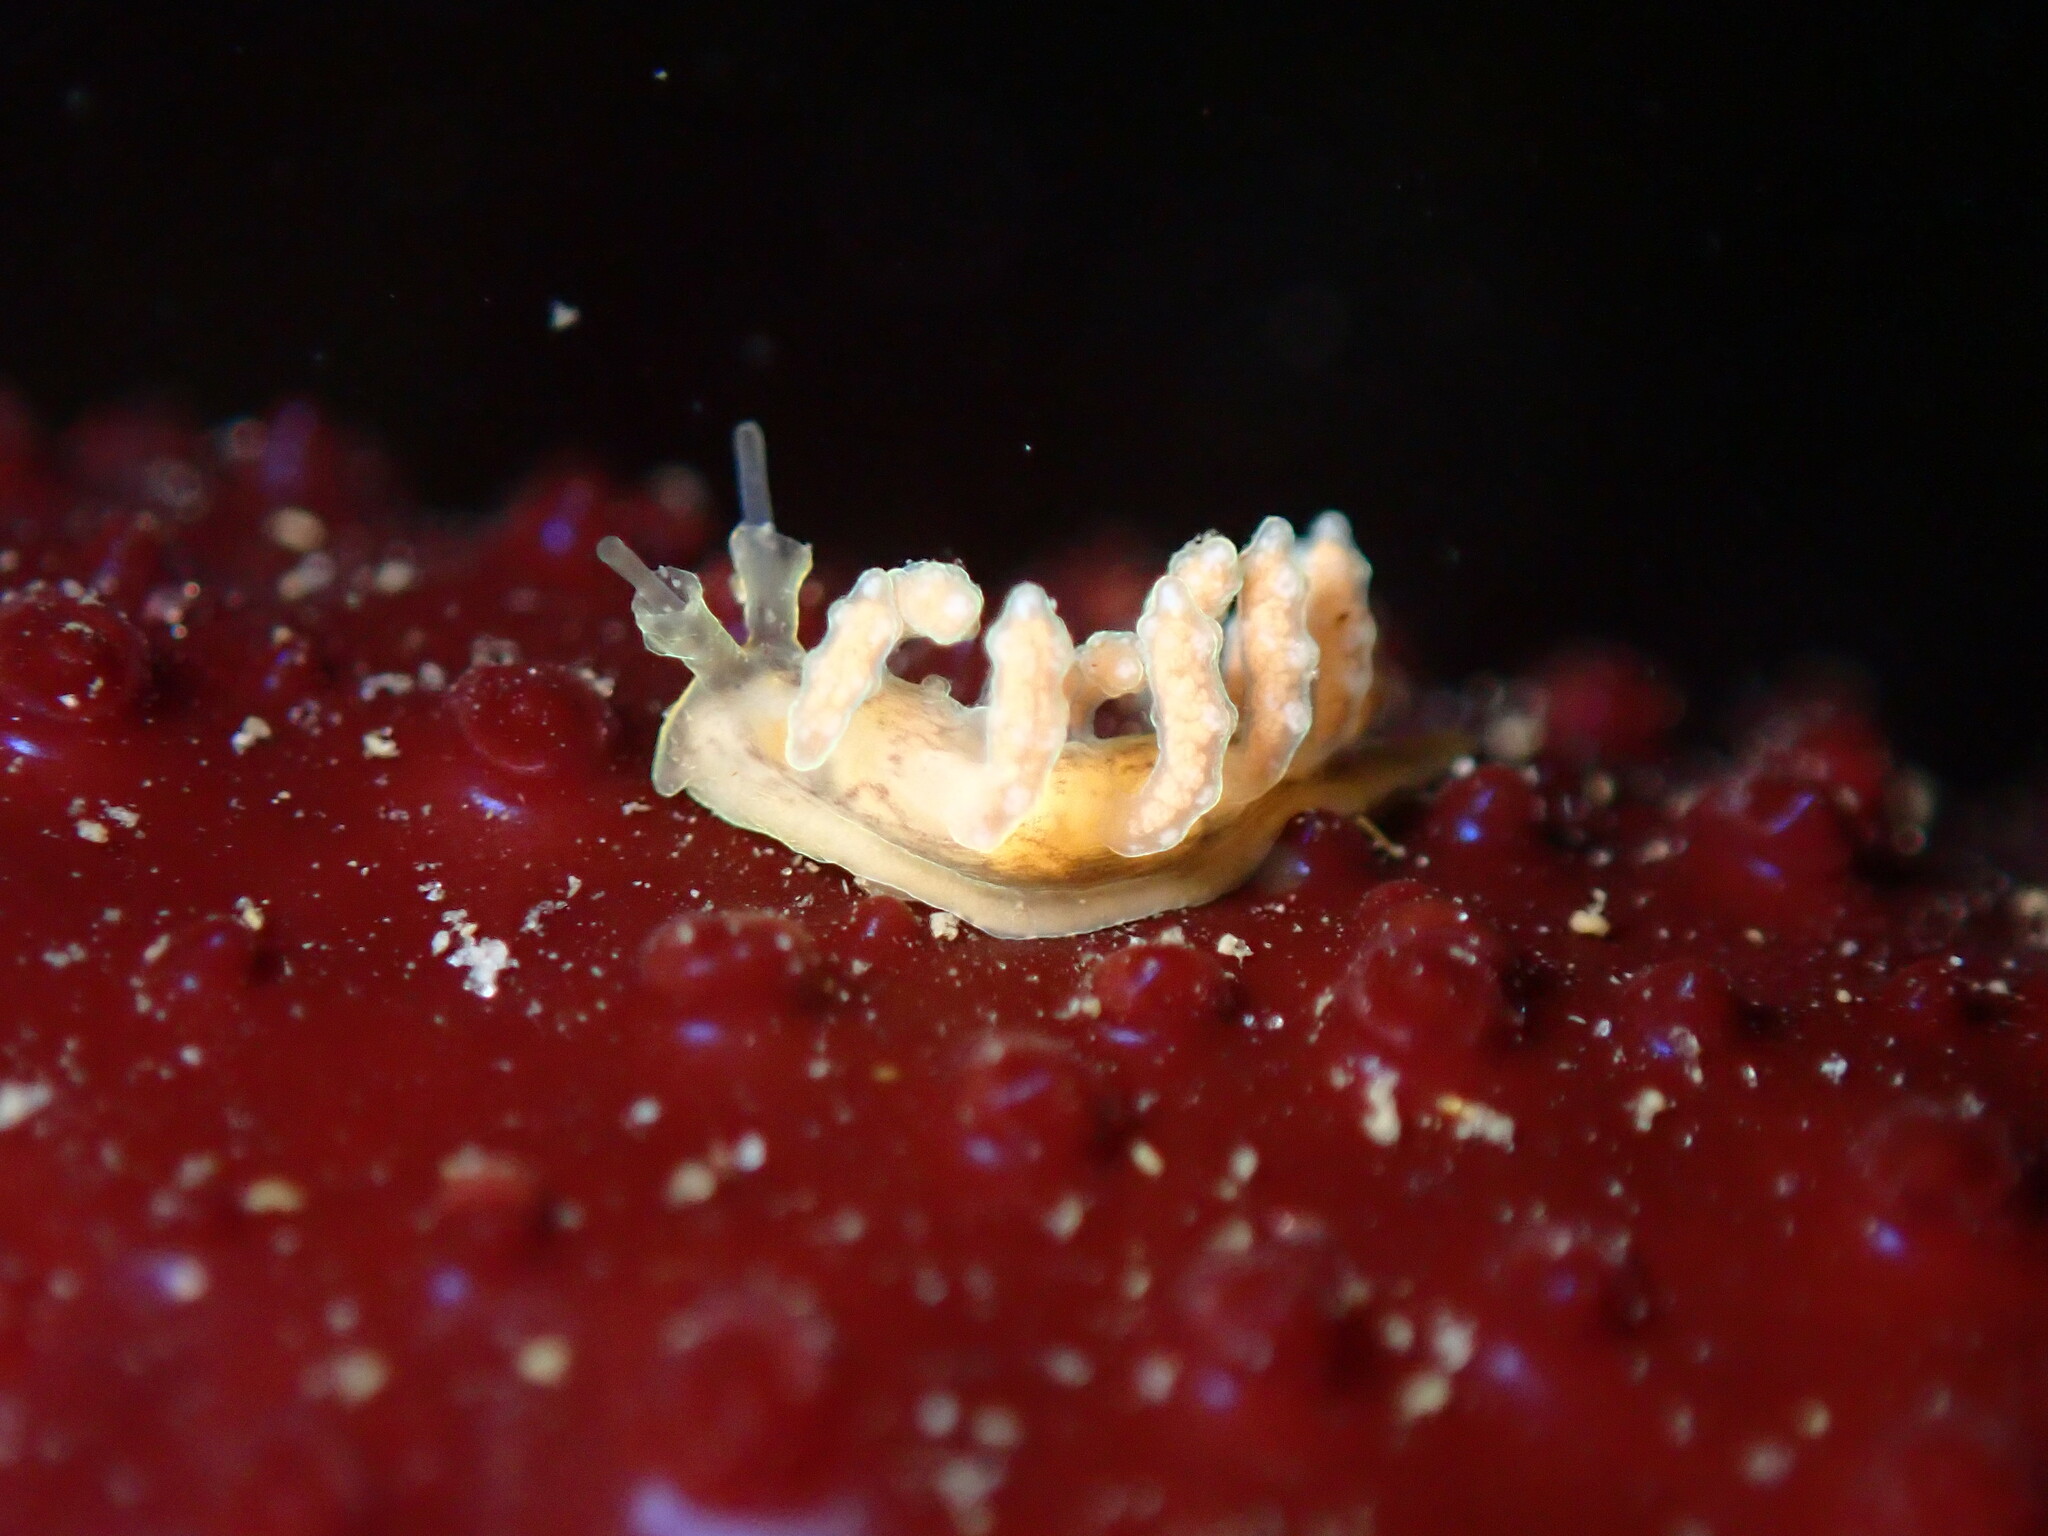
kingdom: Animalia
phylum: Mollusca
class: Gastropoda
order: Nudibranchia
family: Dotidae
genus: Doto
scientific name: Doto columbiana
